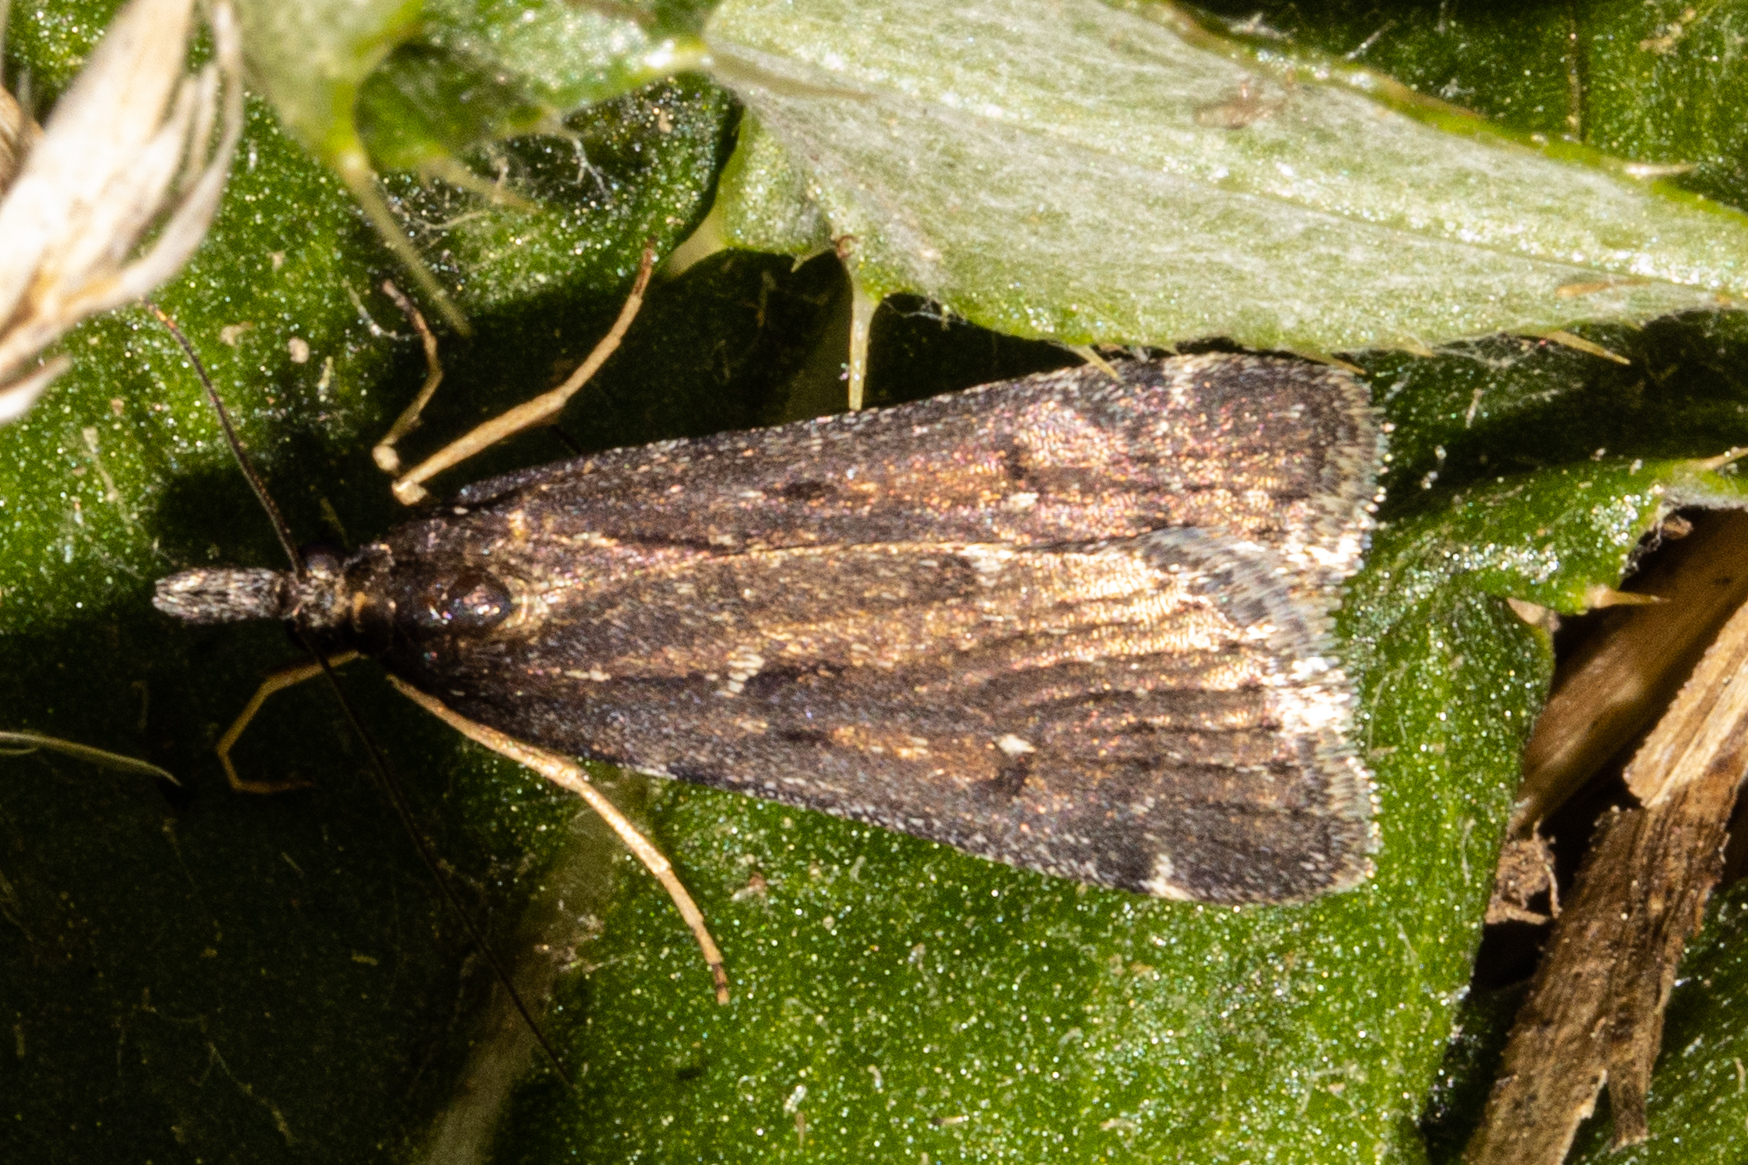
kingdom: Animalia
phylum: Arthropoda
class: Insecta
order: Lepidoptera
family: Crambidae
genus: Eudonia
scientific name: Eudonia oculata
